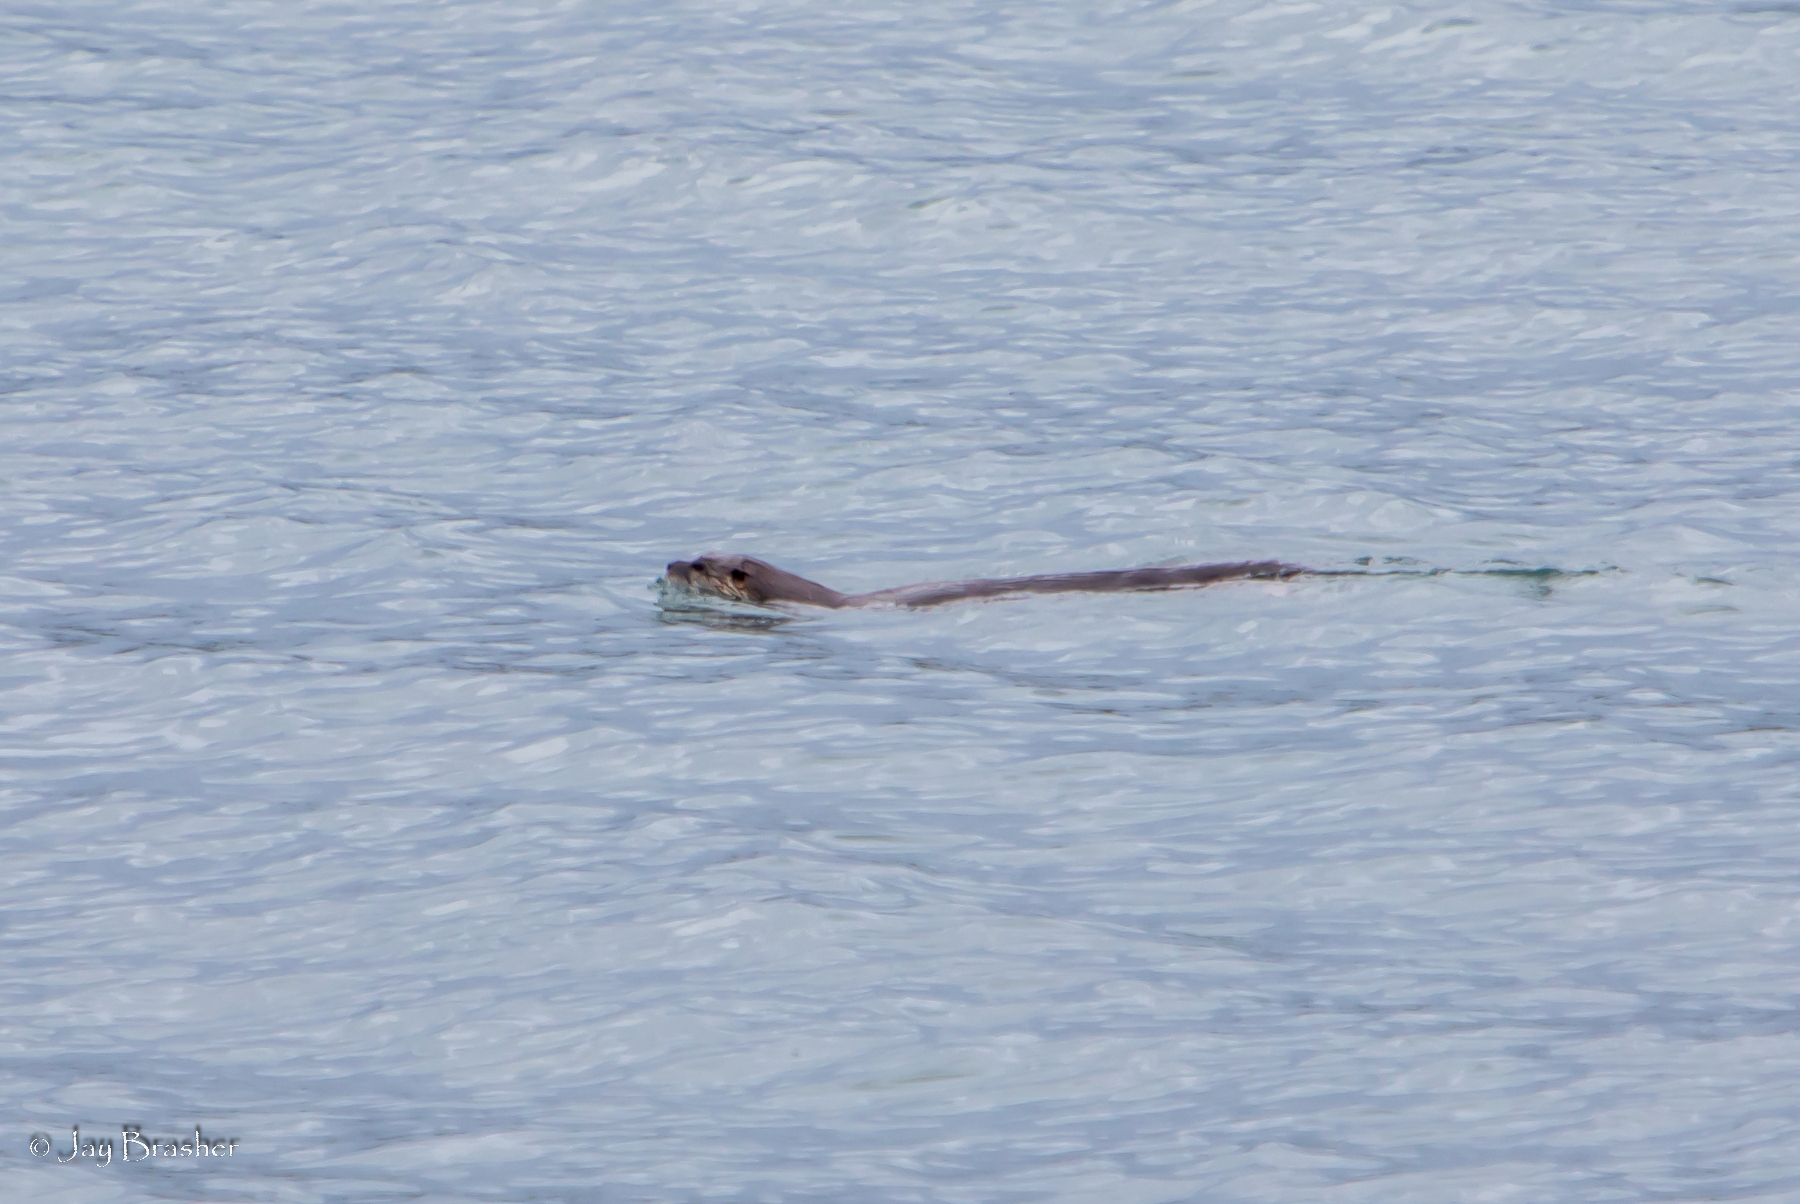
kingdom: Animalia
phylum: Chordata
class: Mammalia
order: Carnivora
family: Mustelidae
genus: Lontra
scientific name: Lontra canadensis
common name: North american river otter
